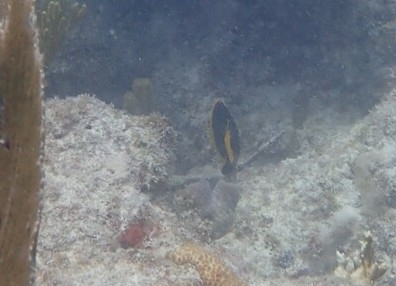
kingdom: Animalia
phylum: Chordata
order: Perciformes
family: Pomacanthidae
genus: Holacanthus
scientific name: Holacanthus tricolor
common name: Rock beauty
